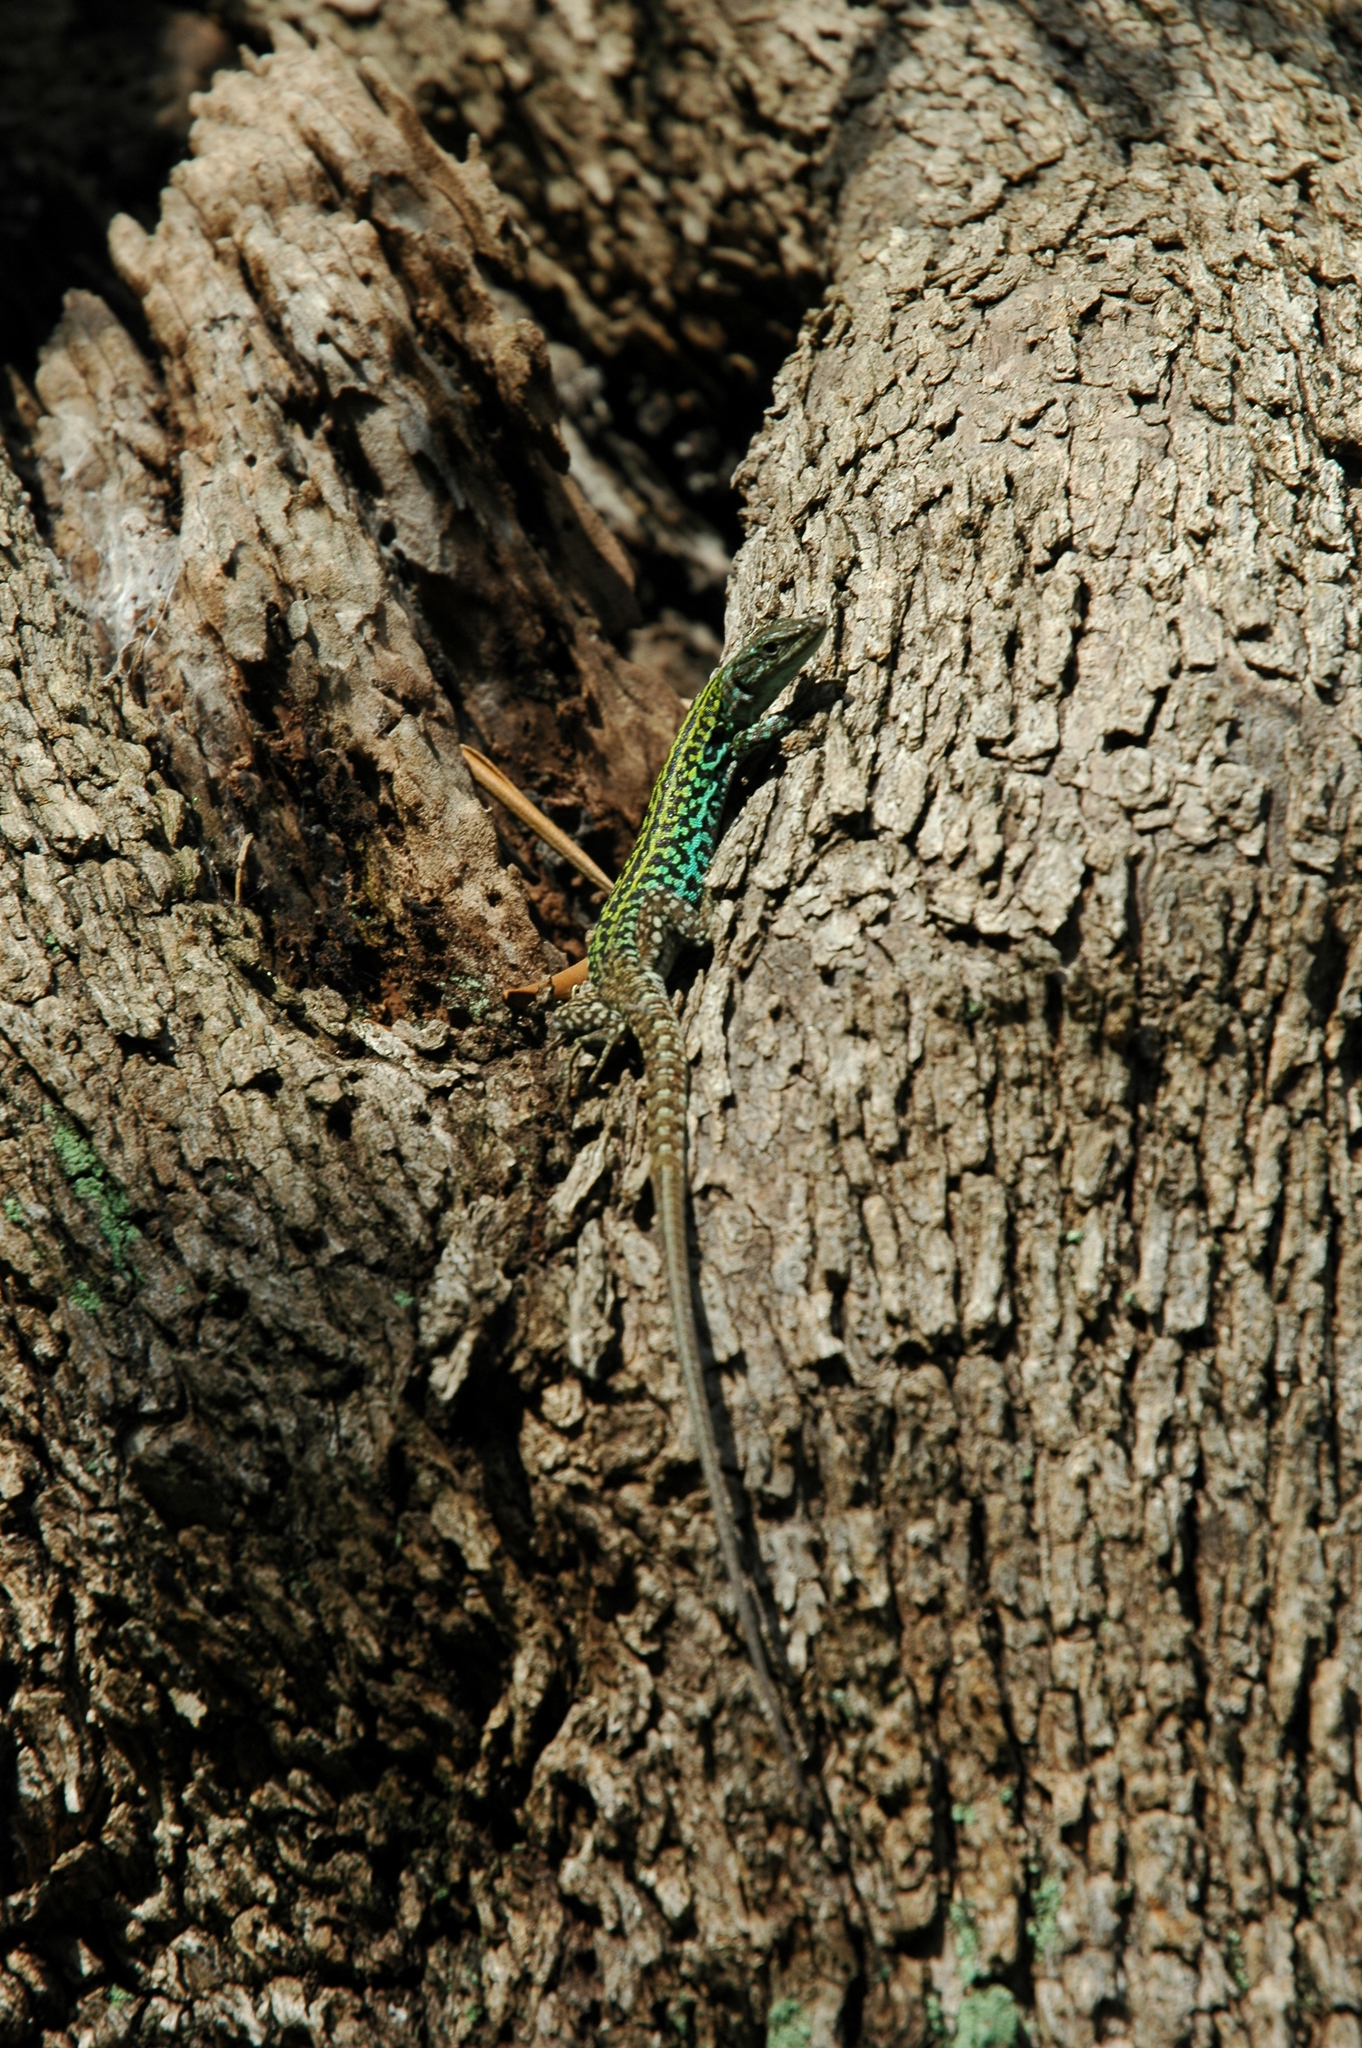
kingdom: Animalia
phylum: Chordata
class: Squamata
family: Lacertidae
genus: Podarcis
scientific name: Podarcis siculus
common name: Italian wall lizard
